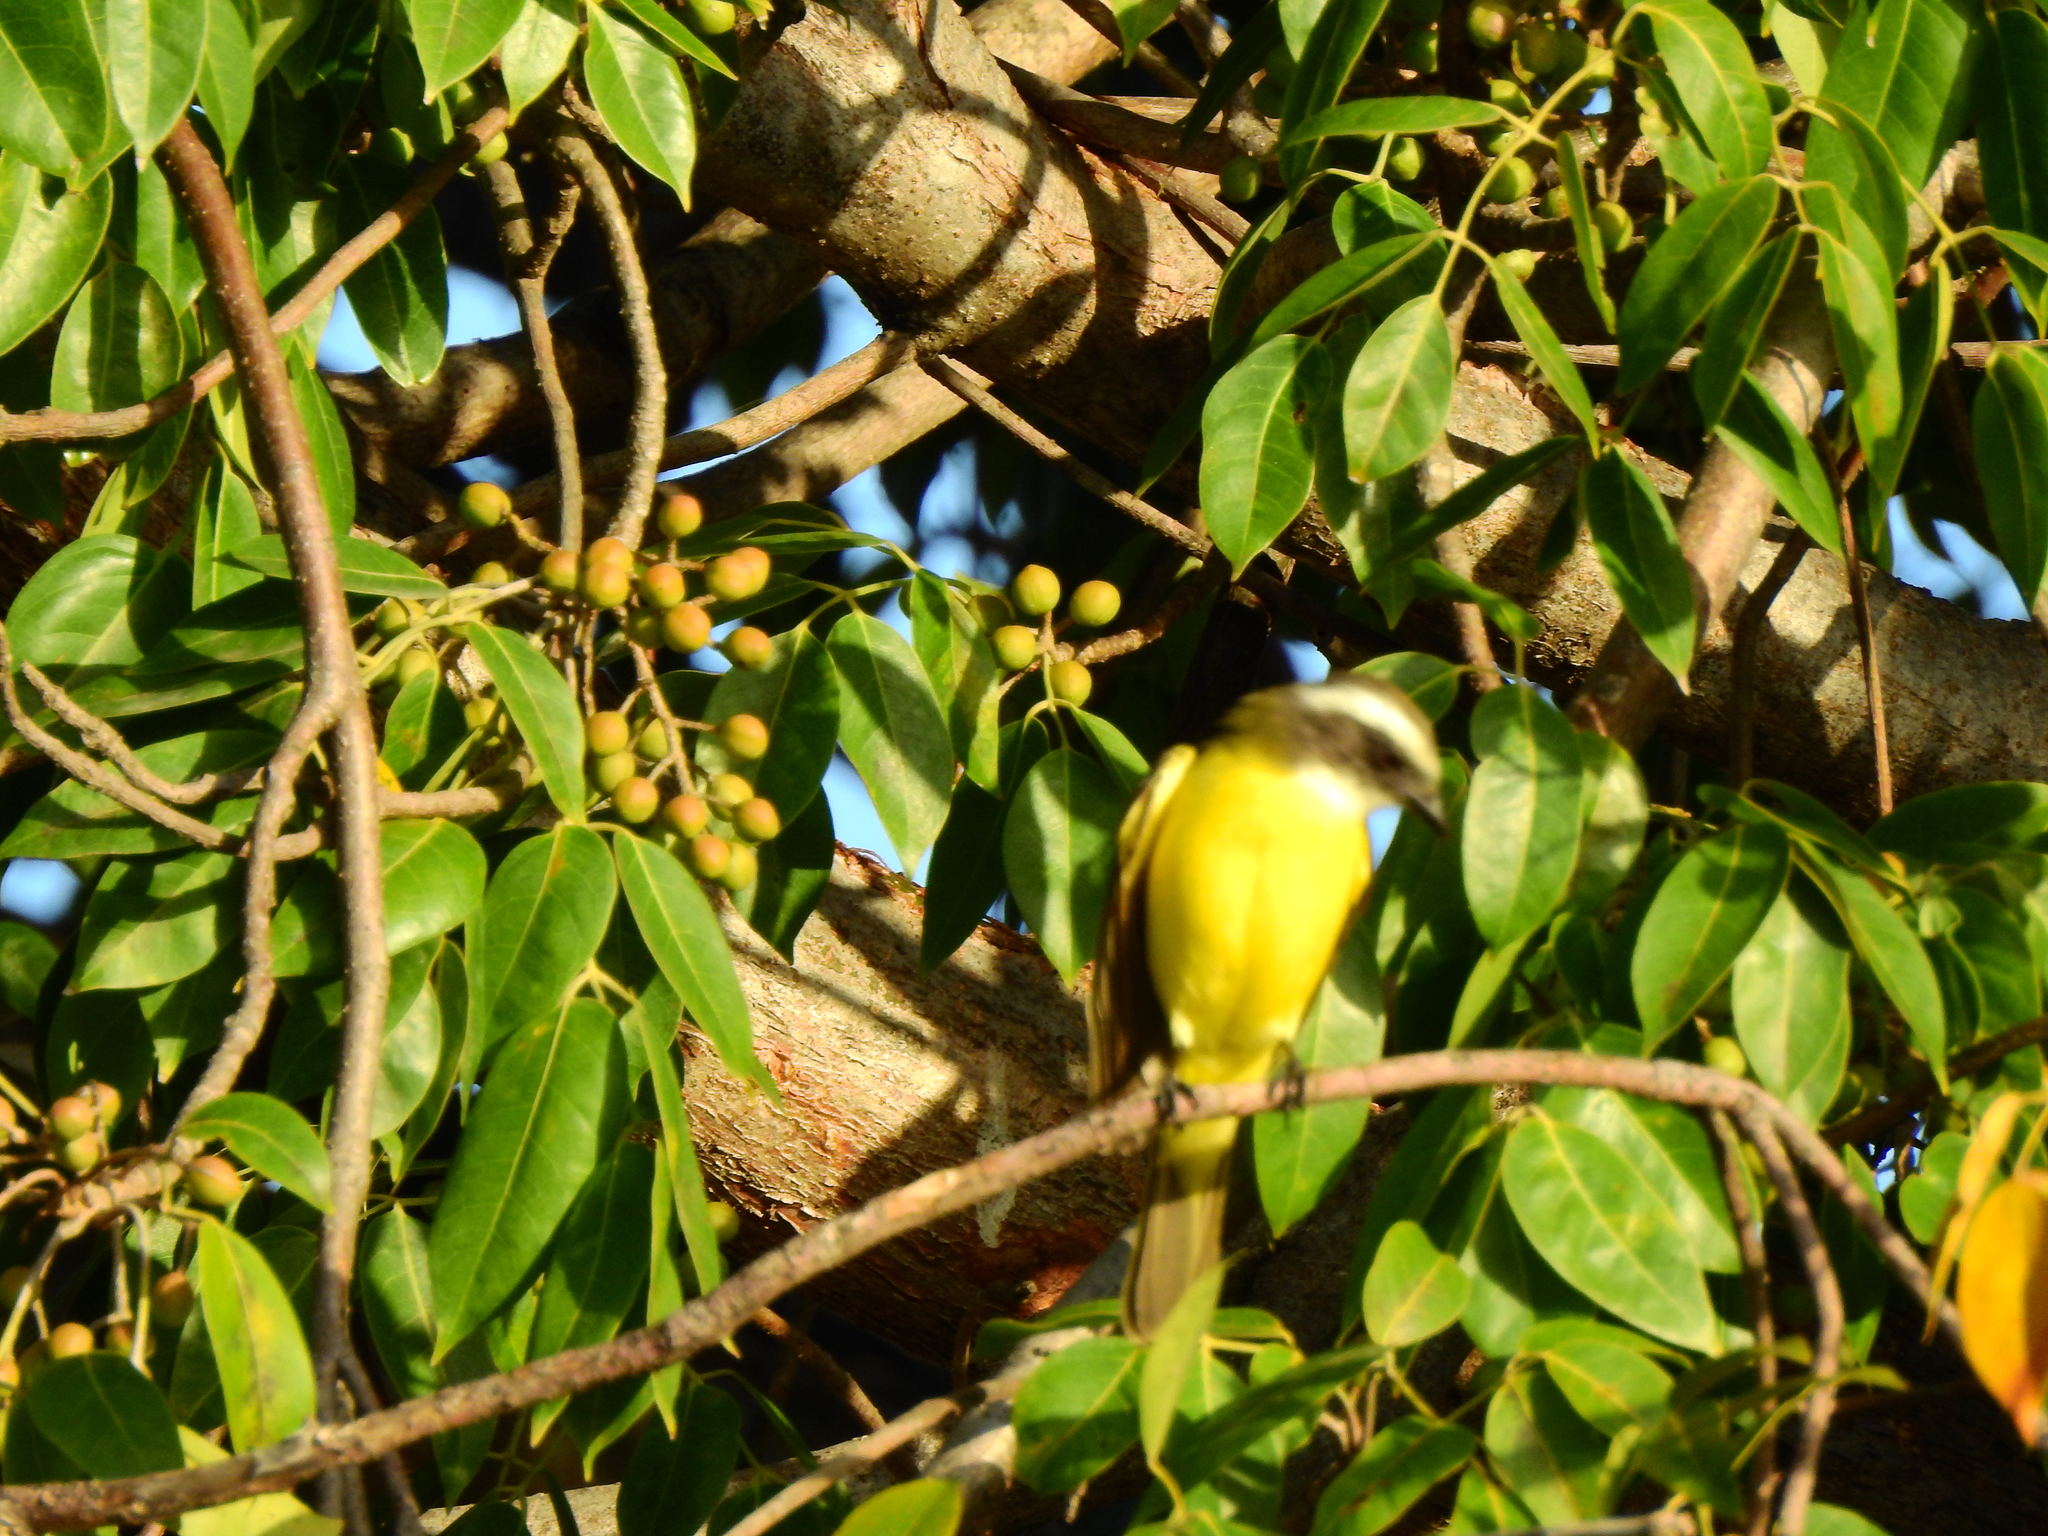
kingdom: Animalia
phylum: Chordata
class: Aves
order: Passeriformes
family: Tyrannidae
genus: Myiozetetes
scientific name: Myiozetetes similis
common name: Social flycatcher
